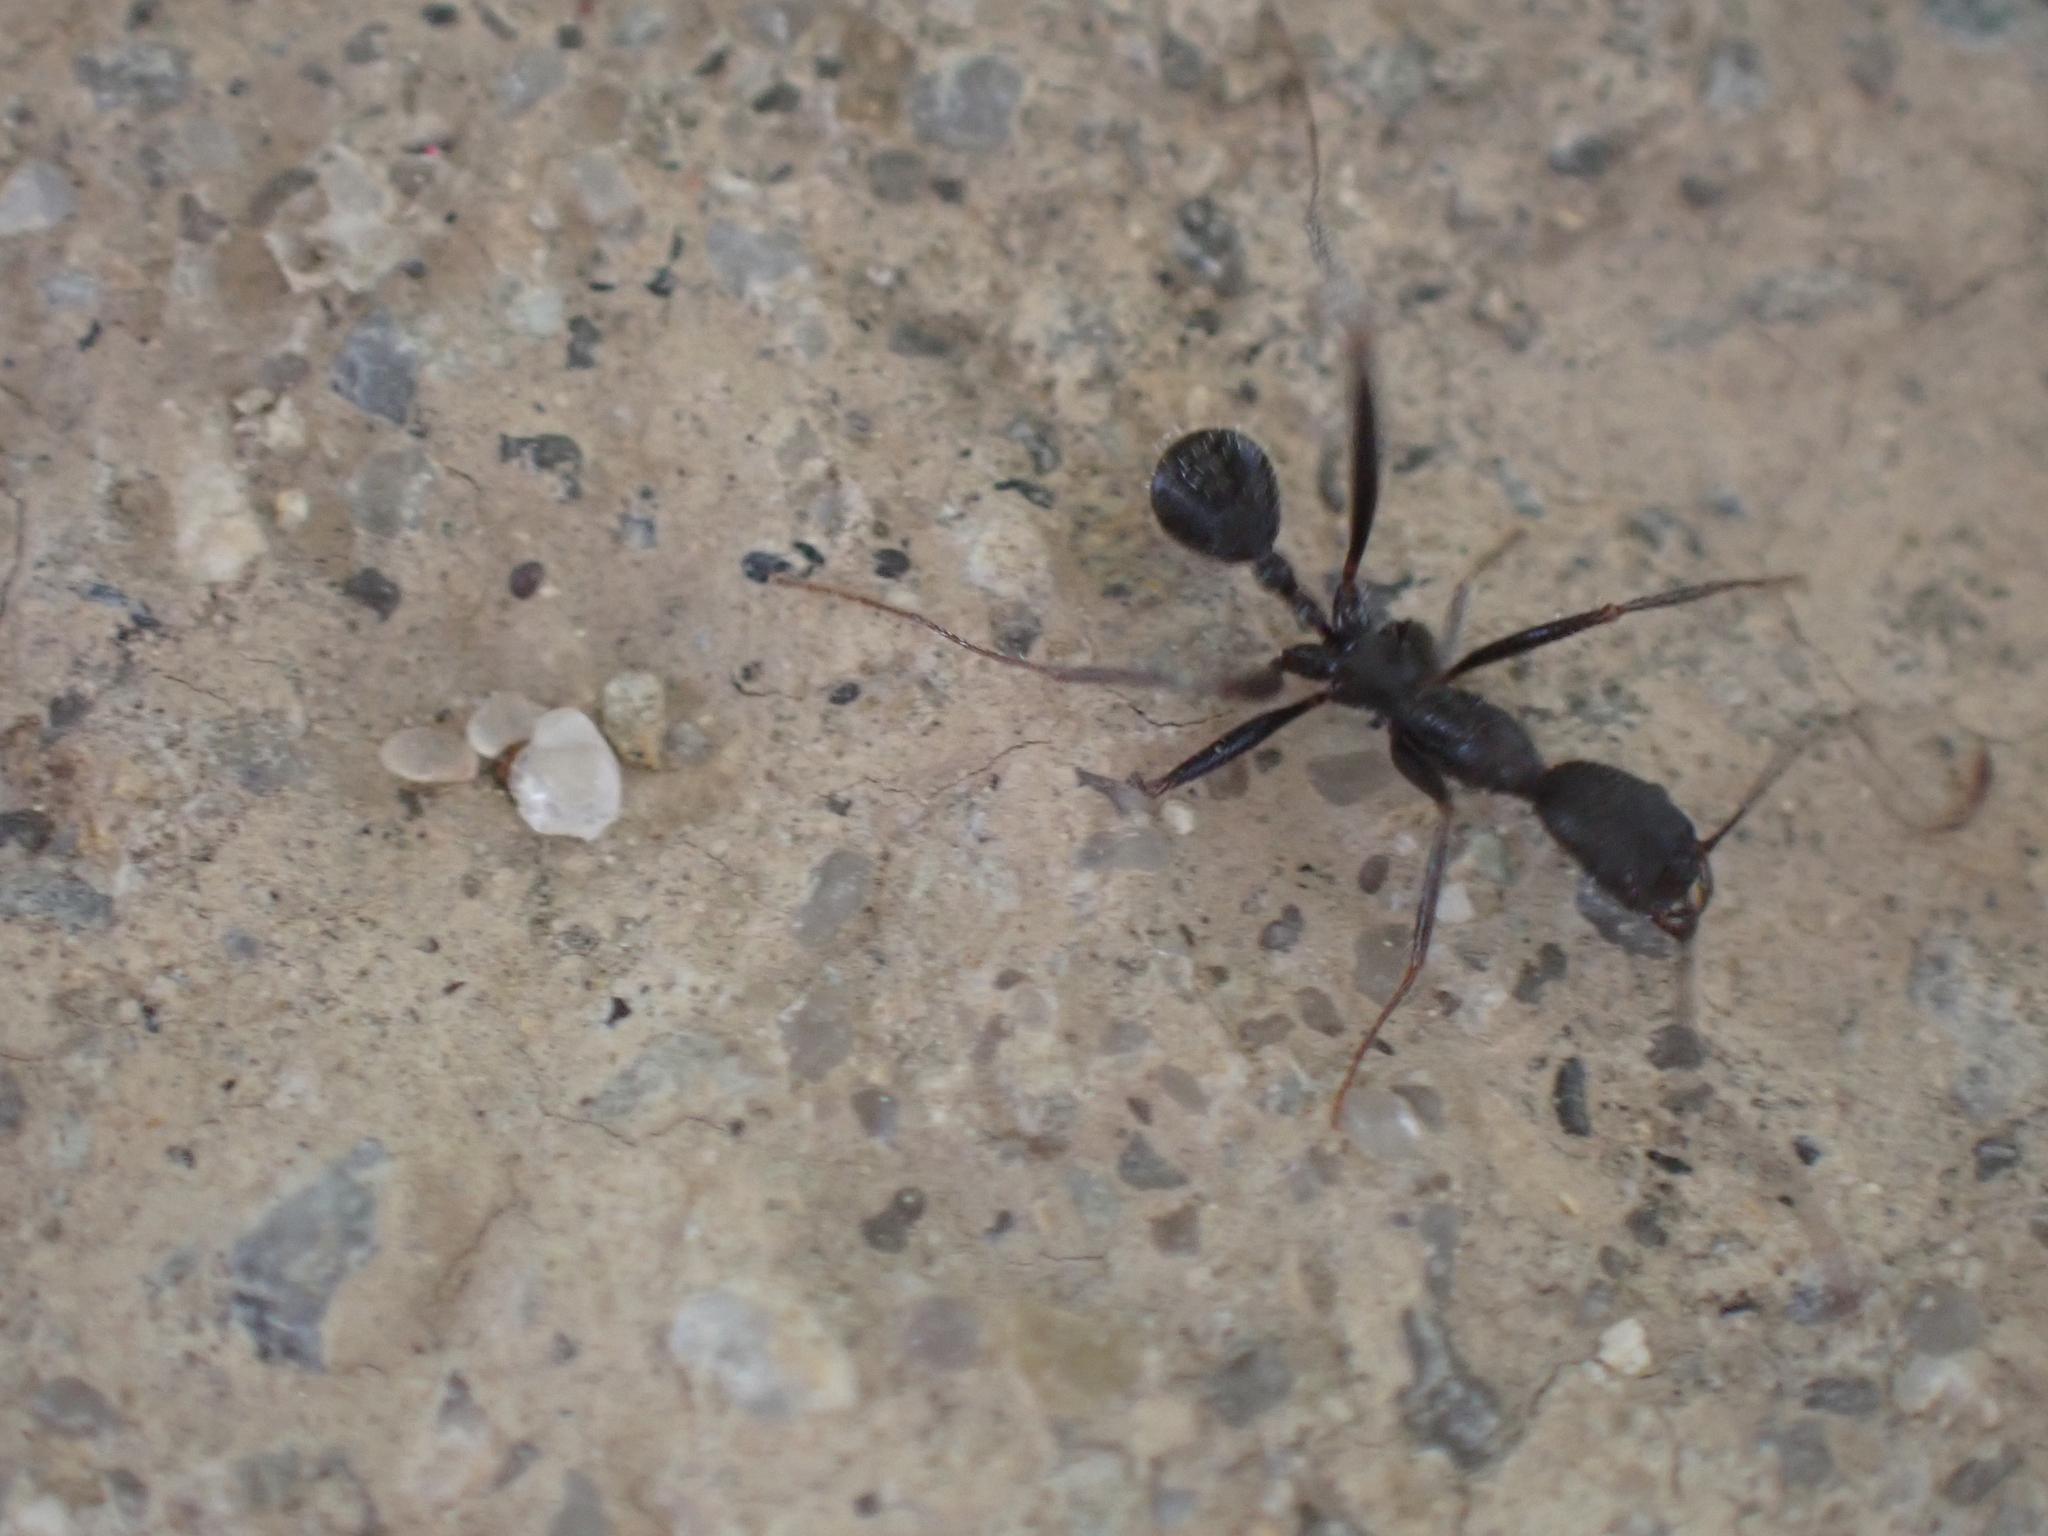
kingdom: Animalia
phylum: Arthropoda
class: Insecta
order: Hymenoptera
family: Formicidae
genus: Aphaenogaster
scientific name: Aphaenogaster
